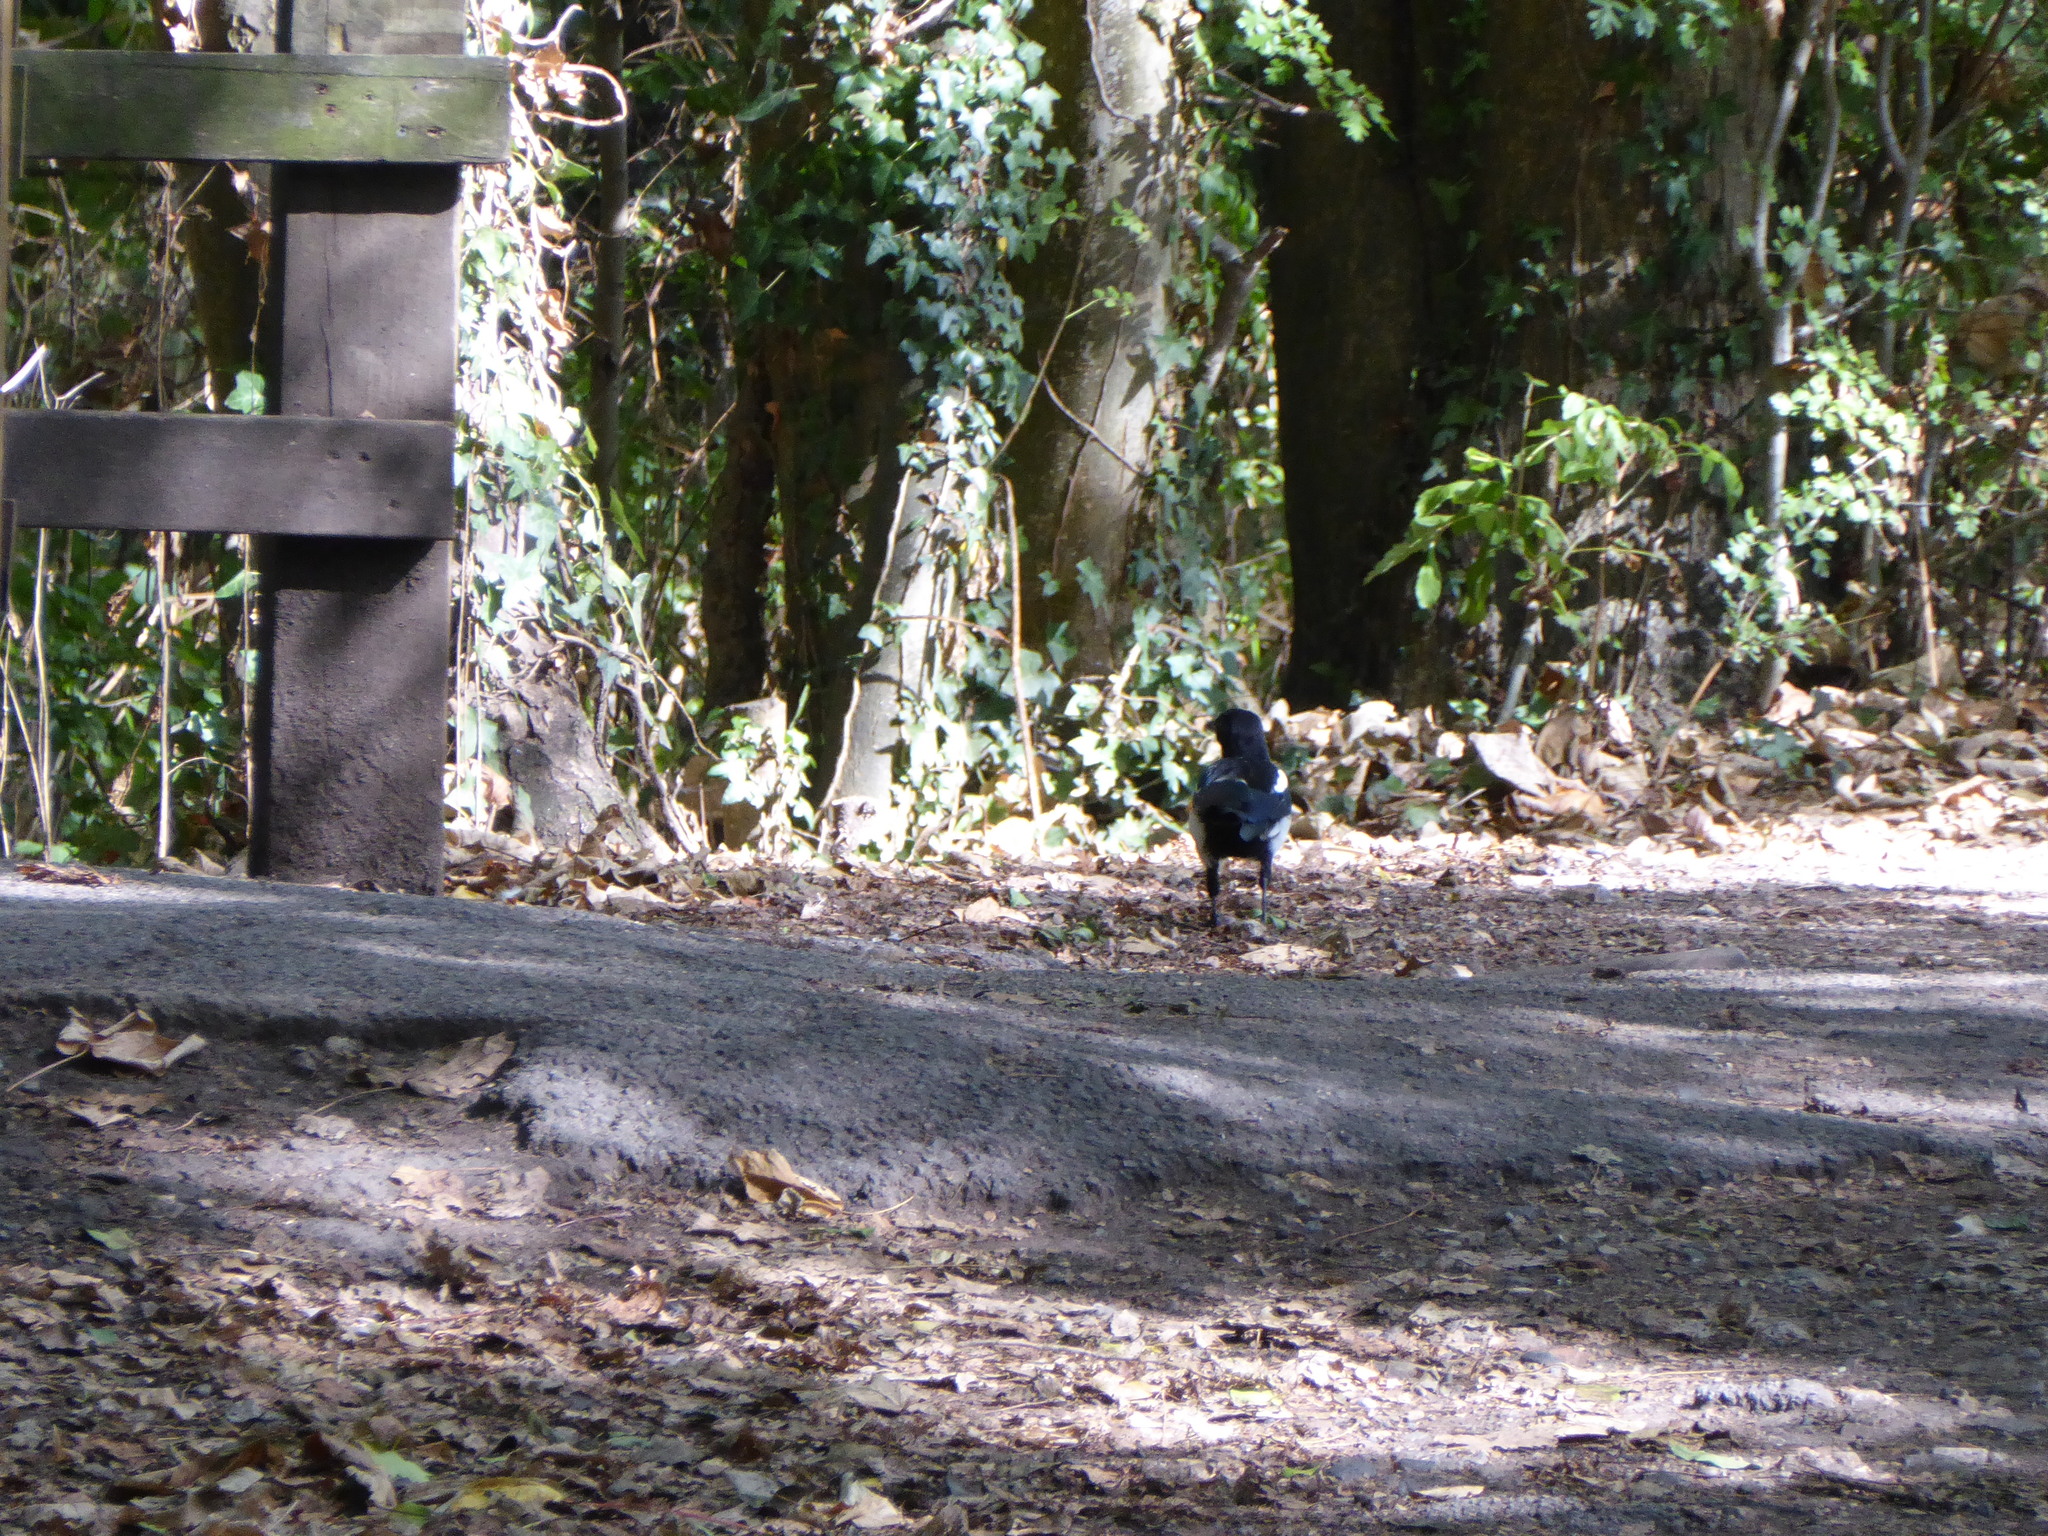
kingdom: Animalia
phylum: Chordata
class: Aves
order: Passeriformes
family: Corvidae
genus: Pica
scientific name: Pica pica
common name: Eurasian magpie
